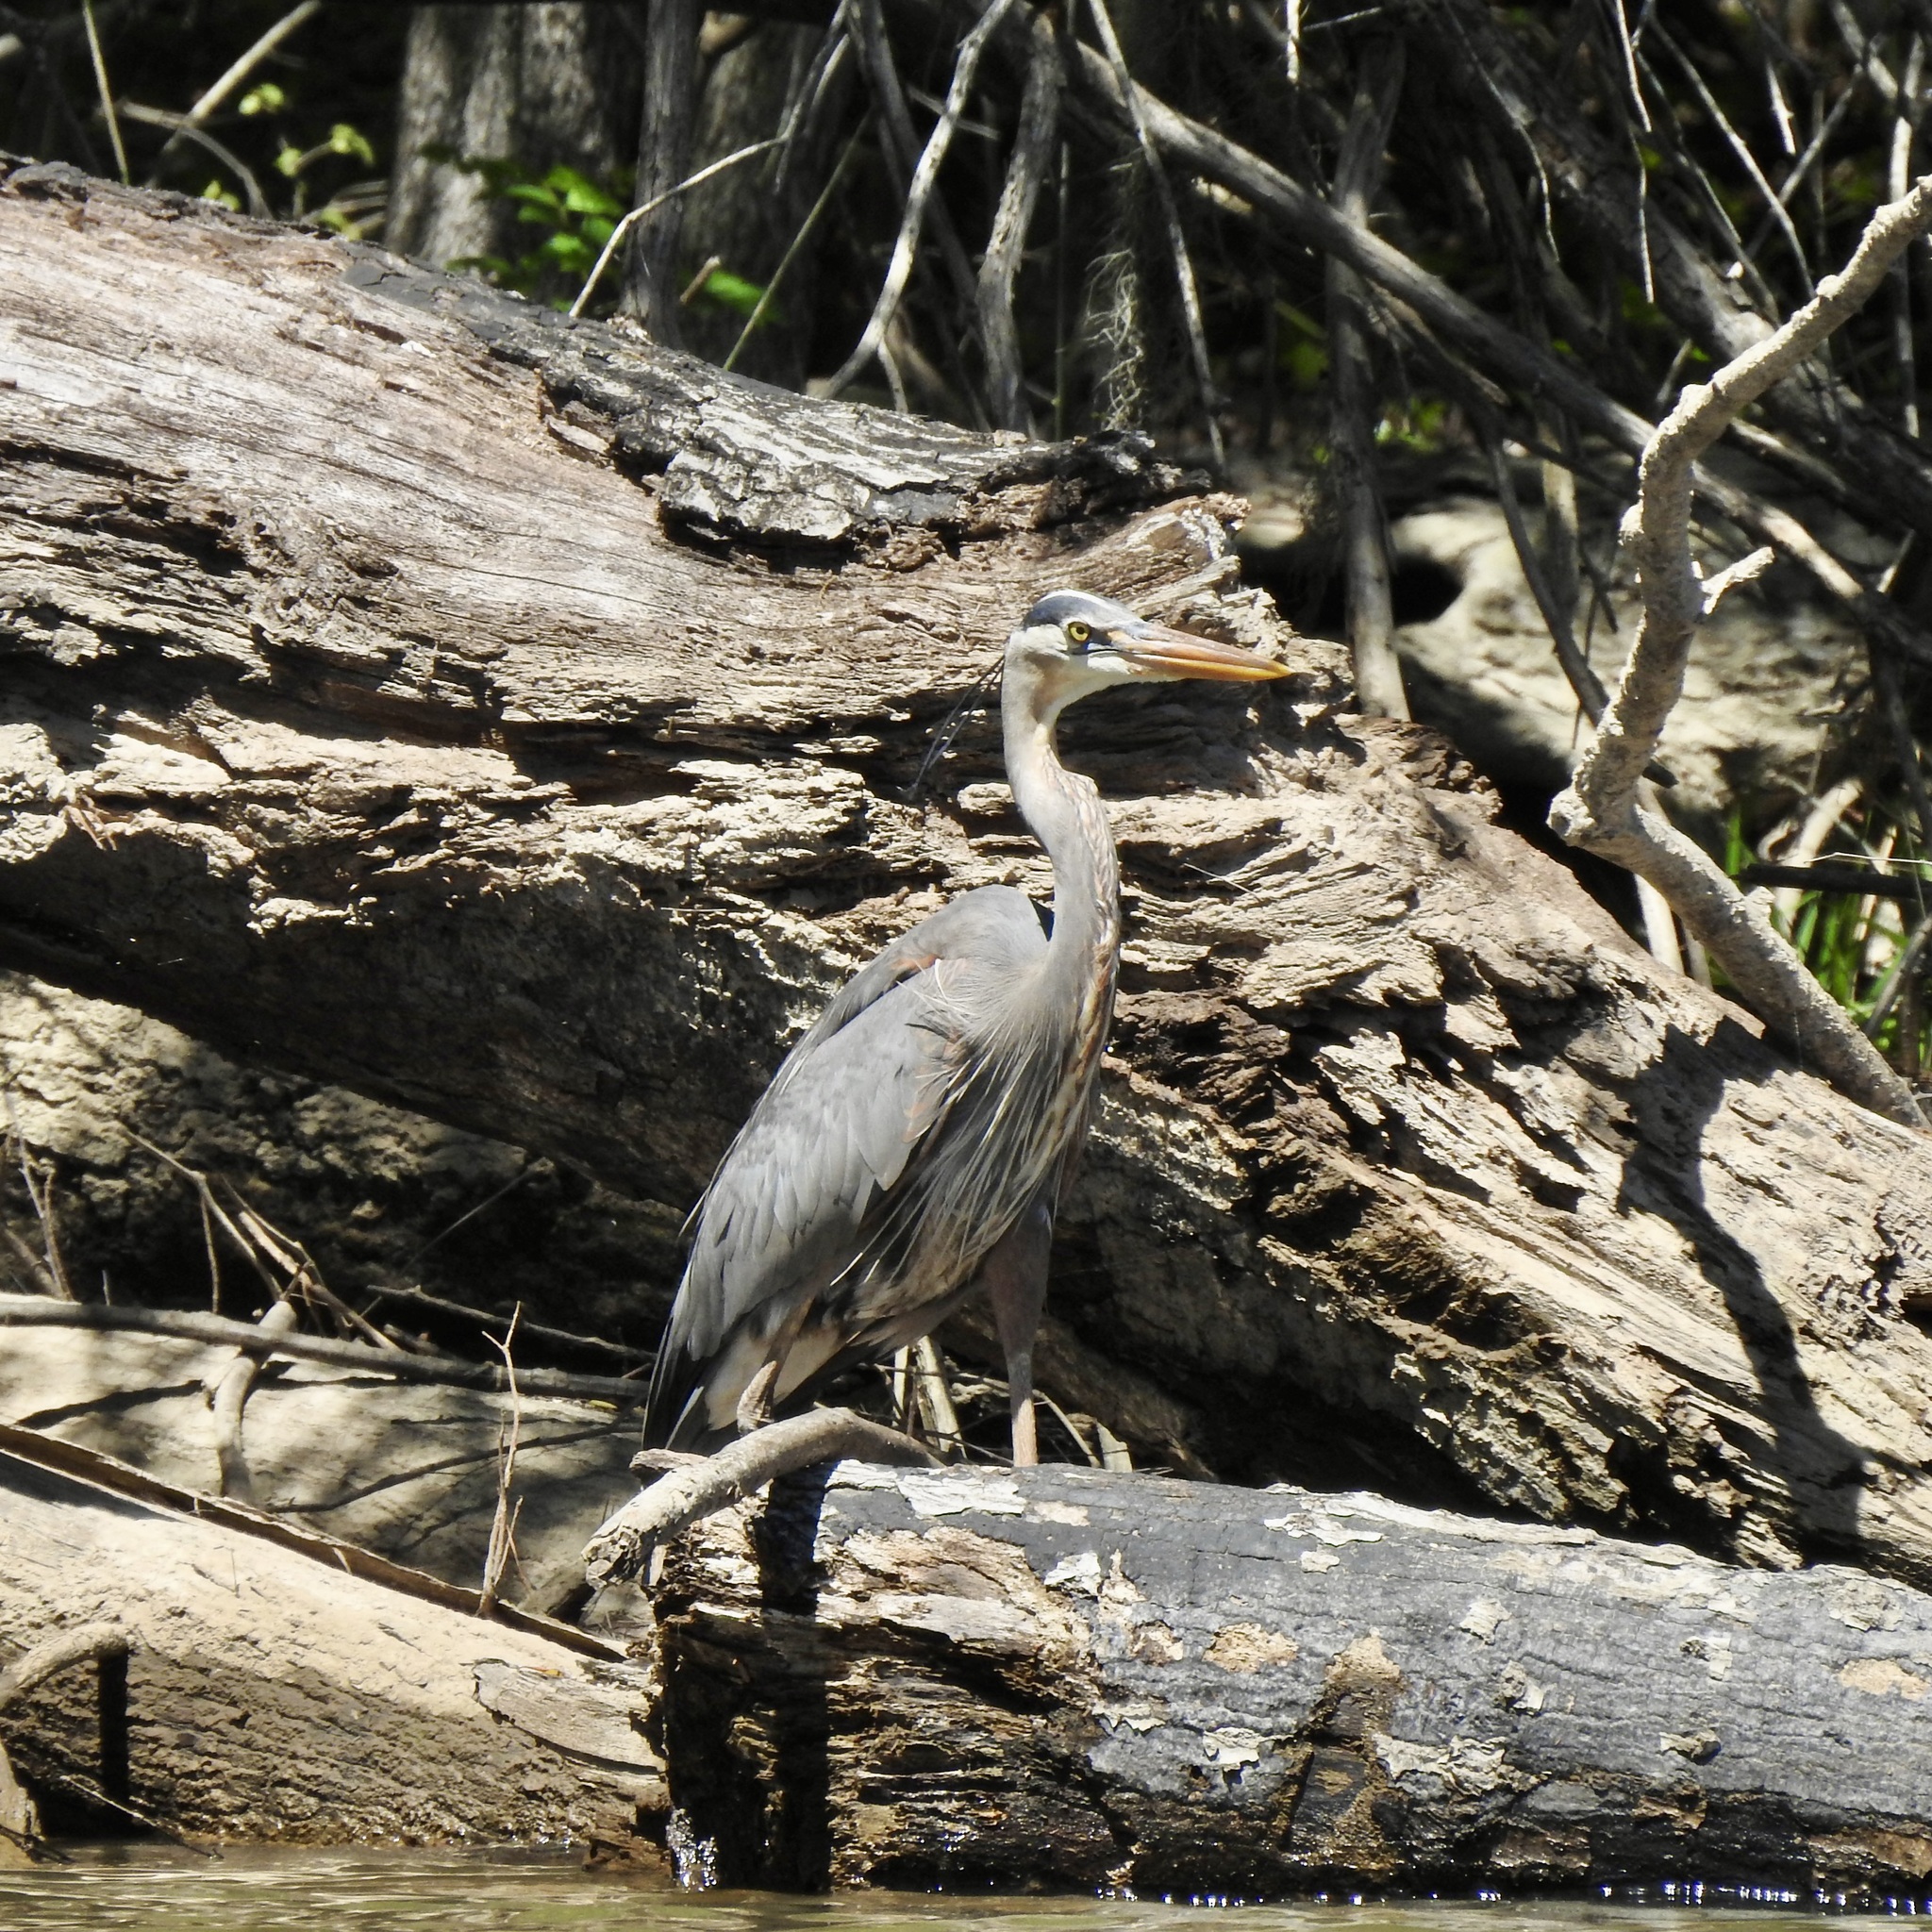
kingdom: Animalia
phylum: Chordata
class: Aves
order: Pelecaniformes
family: Ardeidae
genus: Ardea
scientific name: Ardea herodias
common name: Great blue heron
